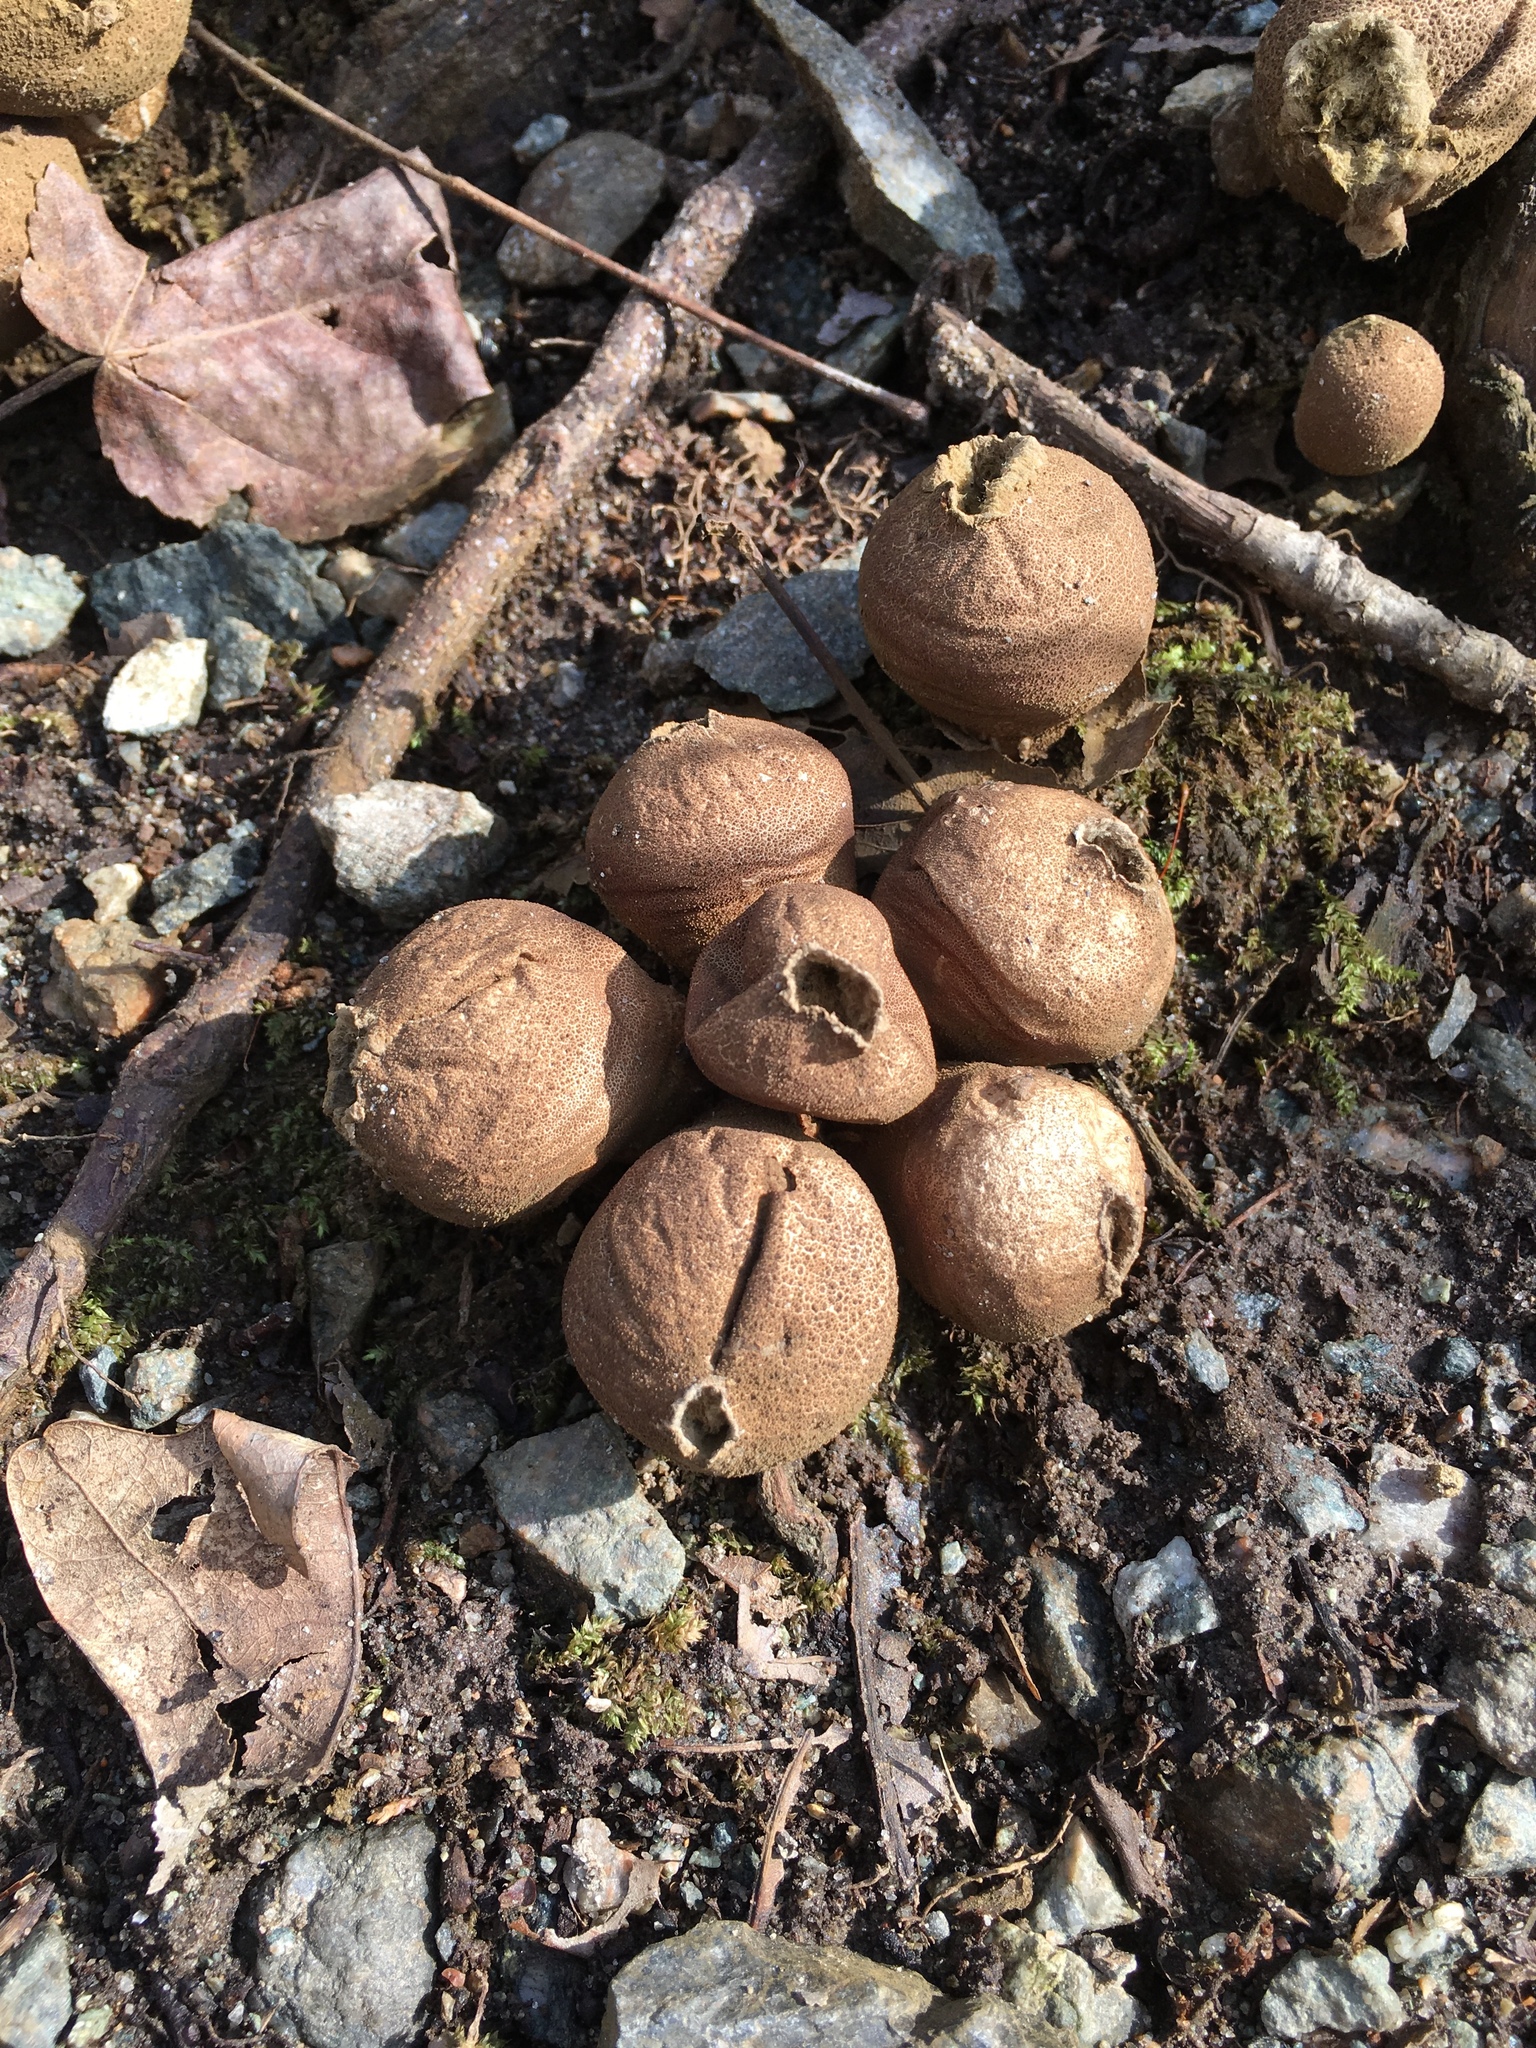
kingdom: Fungi
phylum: Basidiomycota
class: Agaricomycetes
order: Agaricales
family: Lycoperdaceae
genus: Apioperdon
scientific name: Apioperdon pyriforme
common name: Pear-shaped puffball
